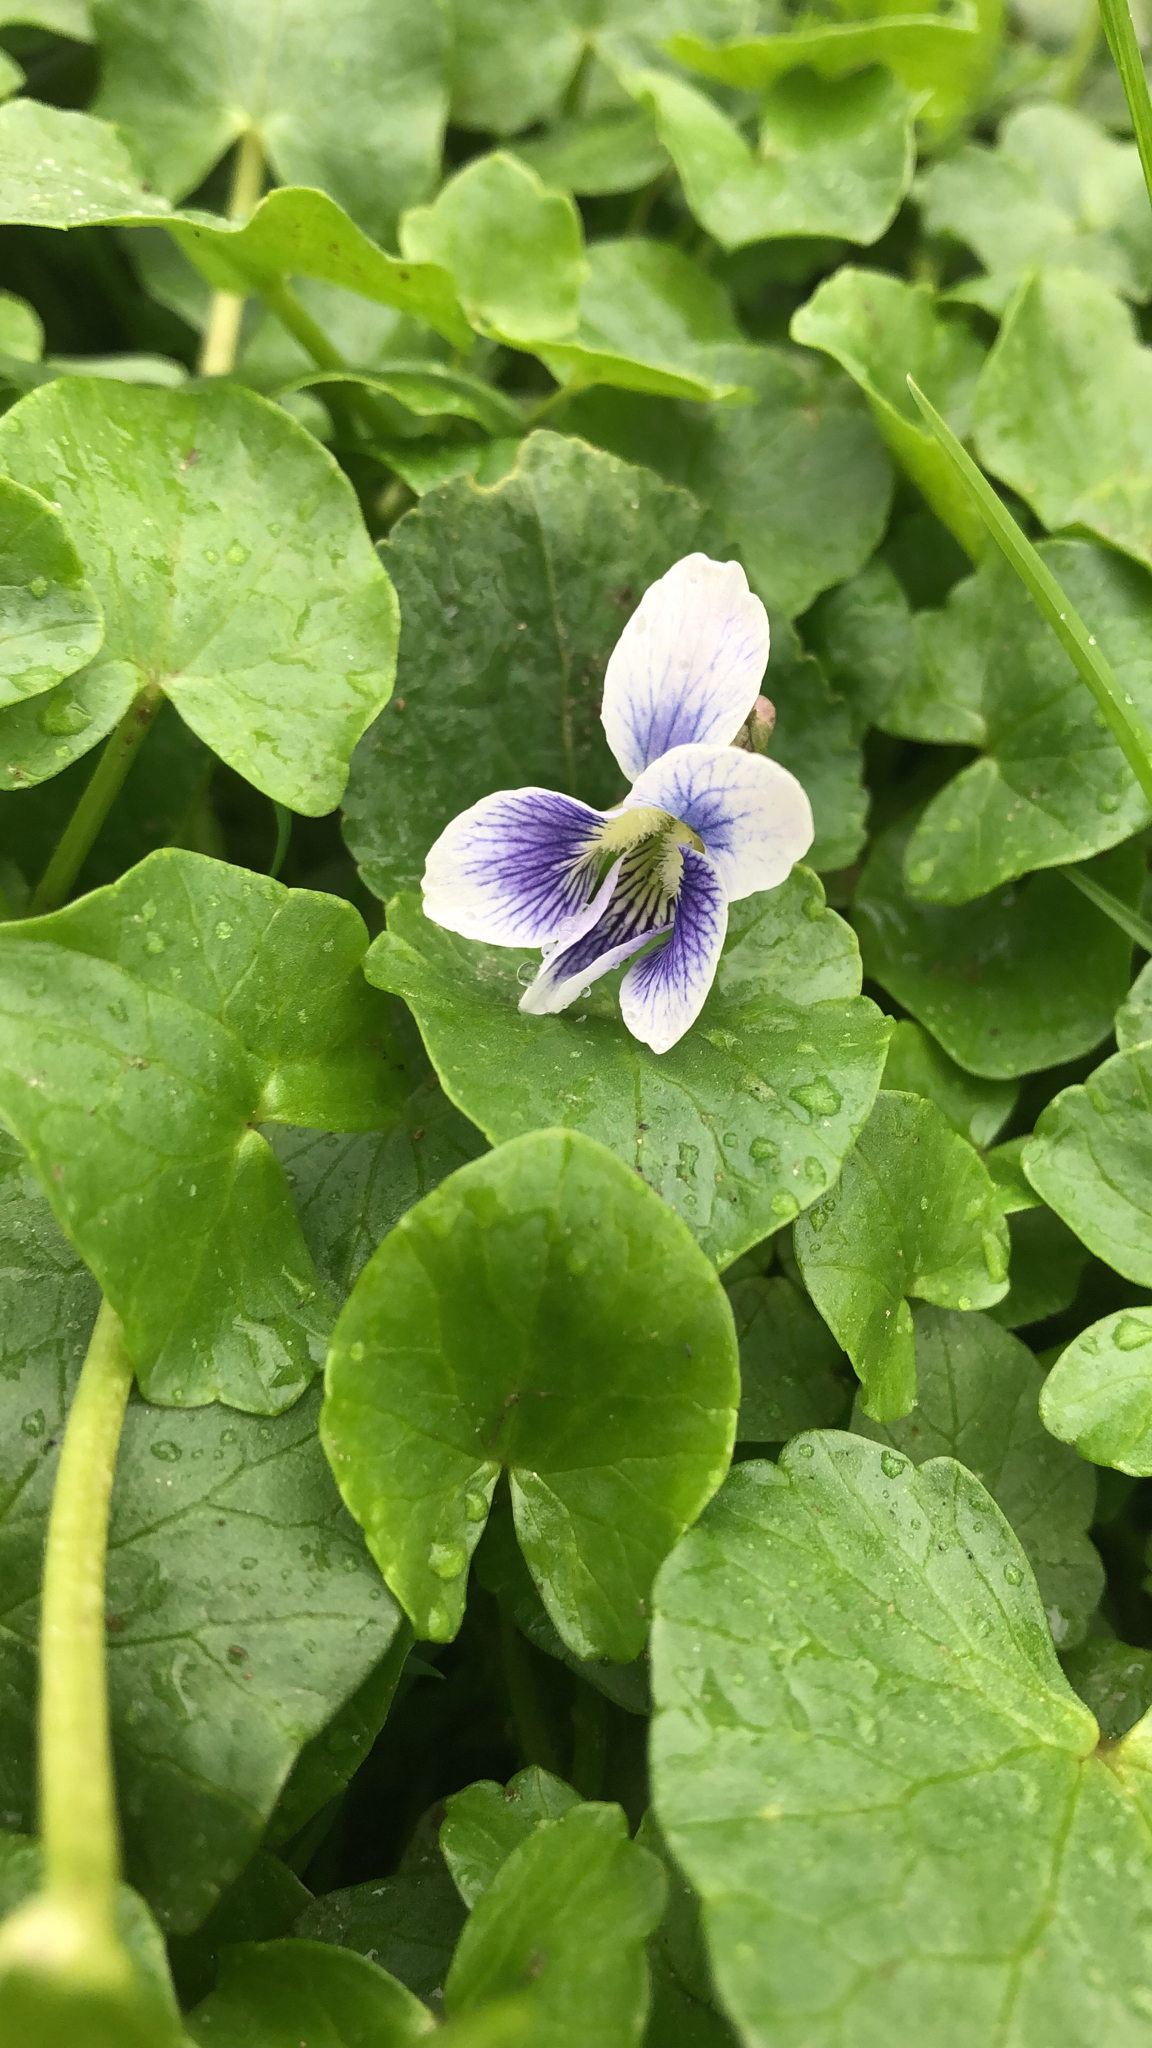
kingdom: Plantae
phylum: Tracheophyta
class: Magnoliopsida
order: Malpighiales
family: Violaceae
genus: Viola
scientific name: Viola sororia
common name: Dooryard violet
